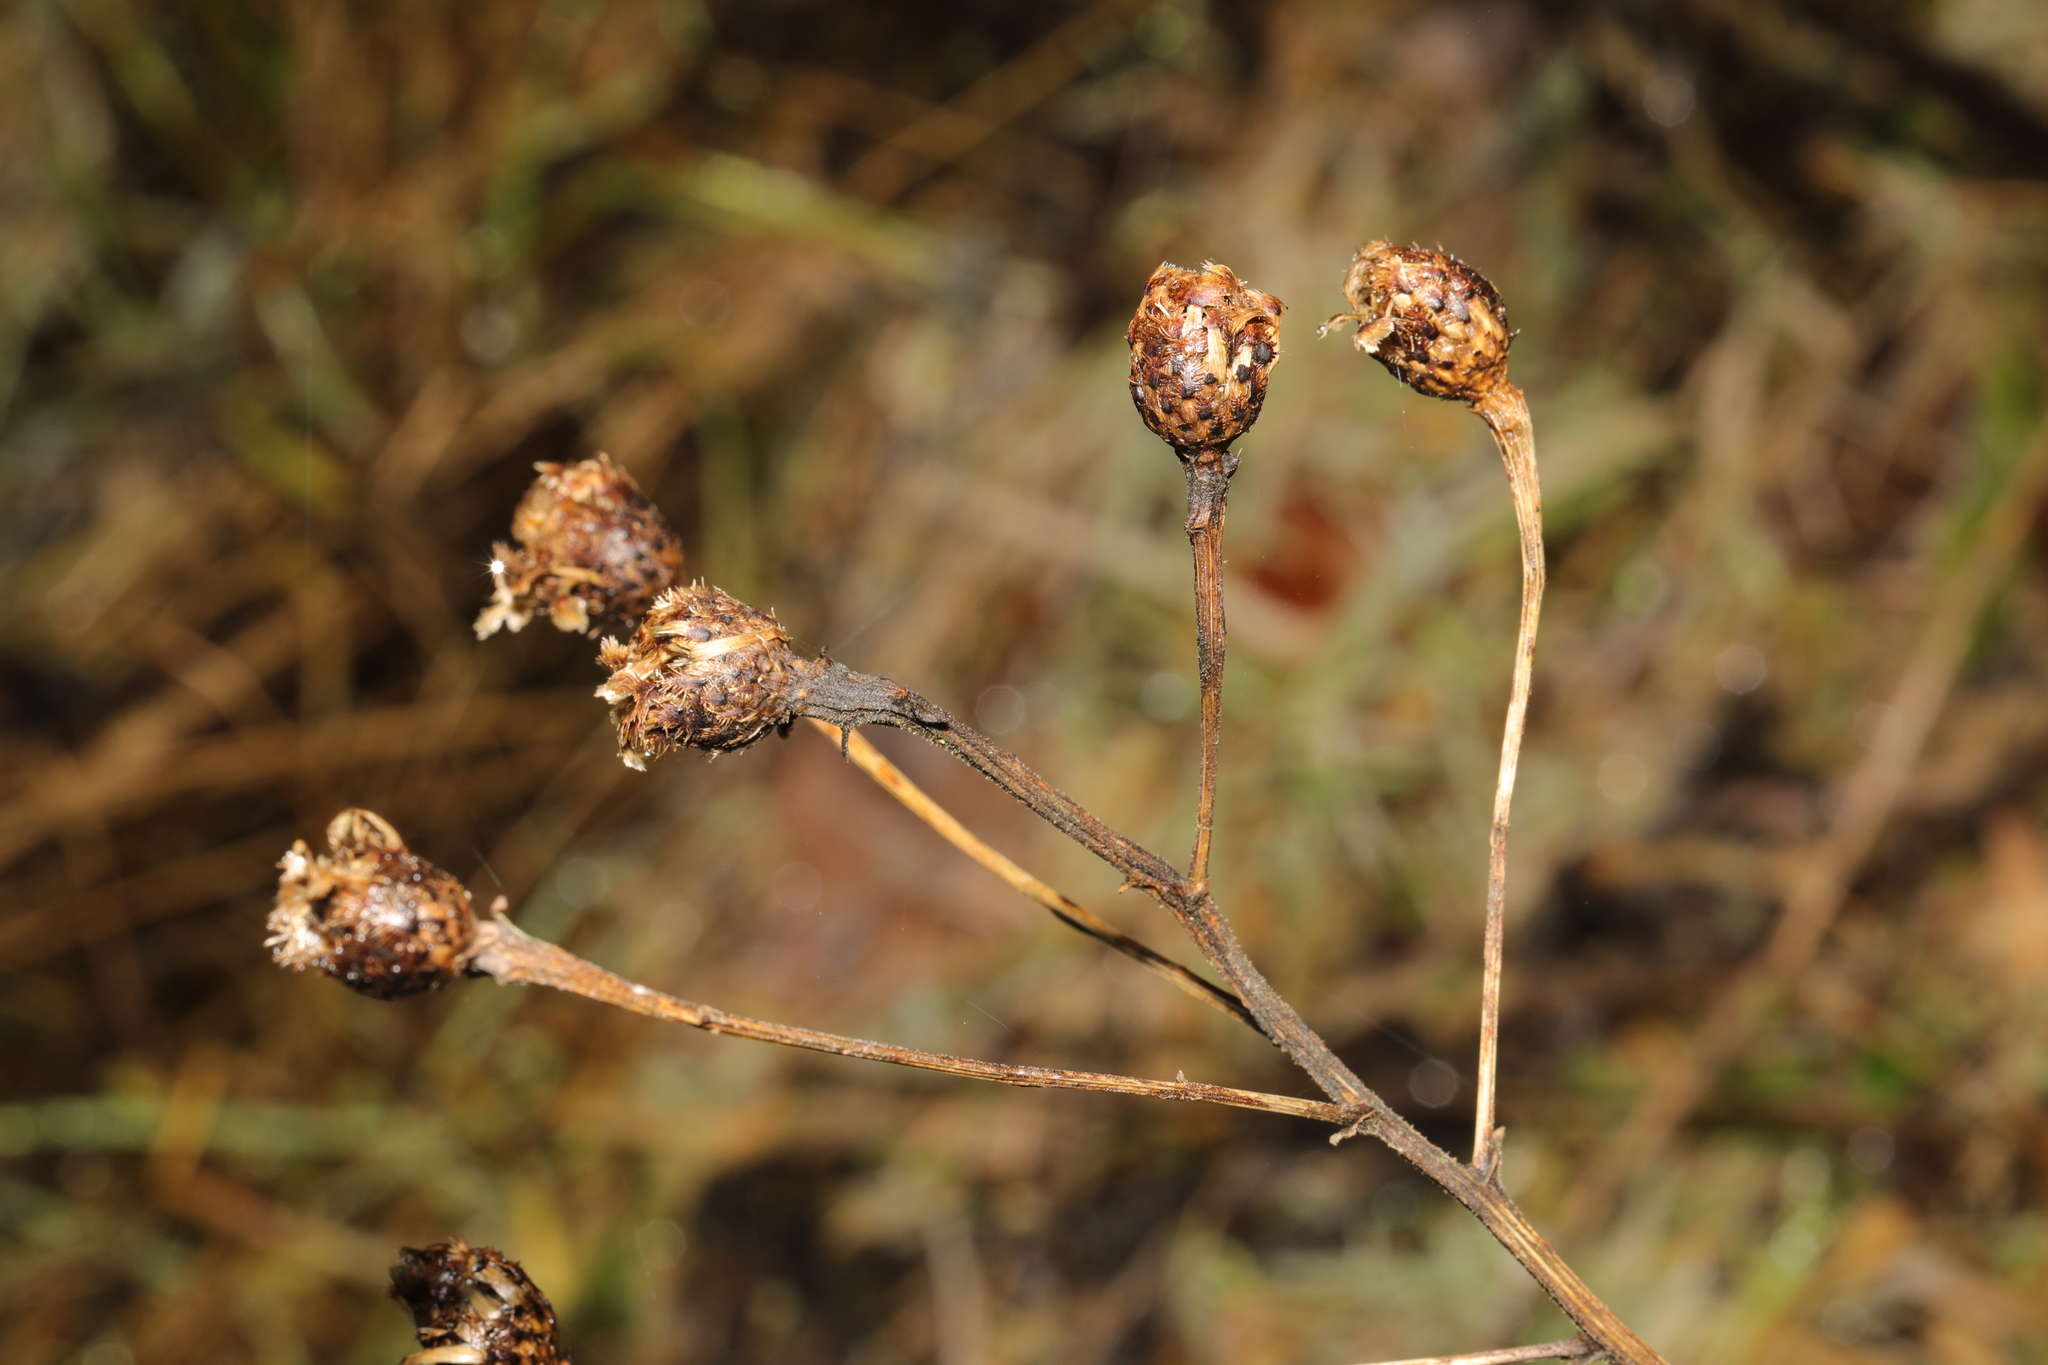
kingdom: Plantae
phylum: Tracheophyta
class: Magnoliopsida
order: Asterales
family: Asteraceae
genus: Centaurea
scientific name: Centaurea nigra
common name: Lesser knapweed
